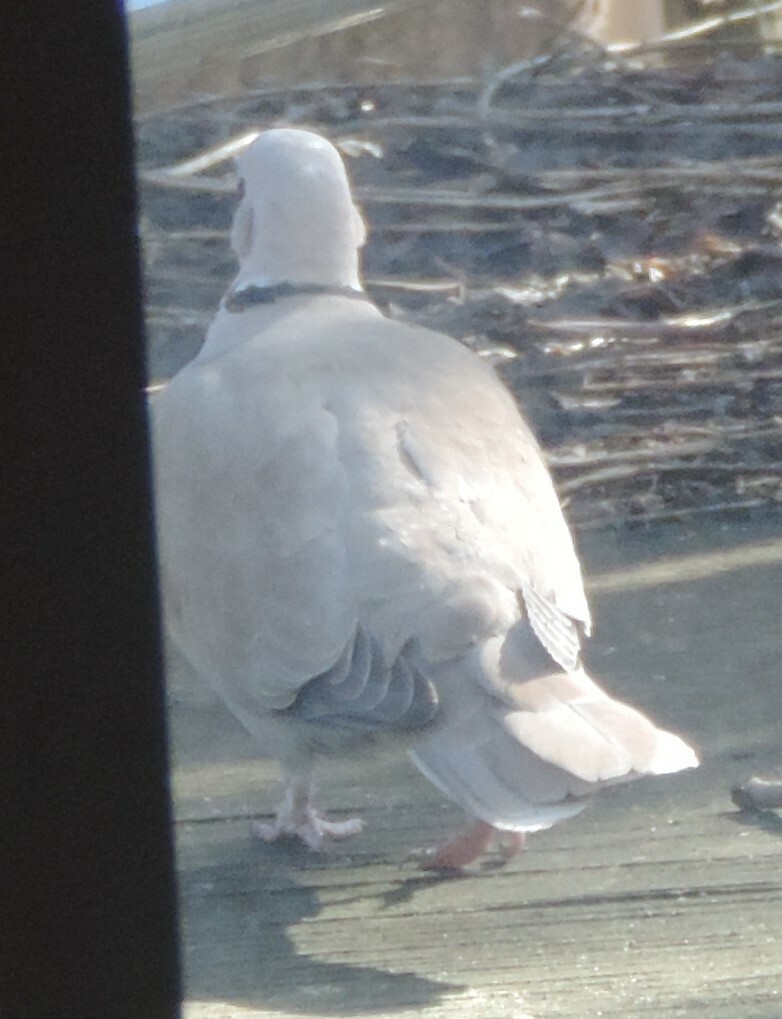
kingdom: Animalia
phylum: Chordata
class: Aves
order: Columbiformes
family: Columbidae
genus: Streptopelia
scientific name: Streptopelia decaocto
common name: Eurasian collared dove
